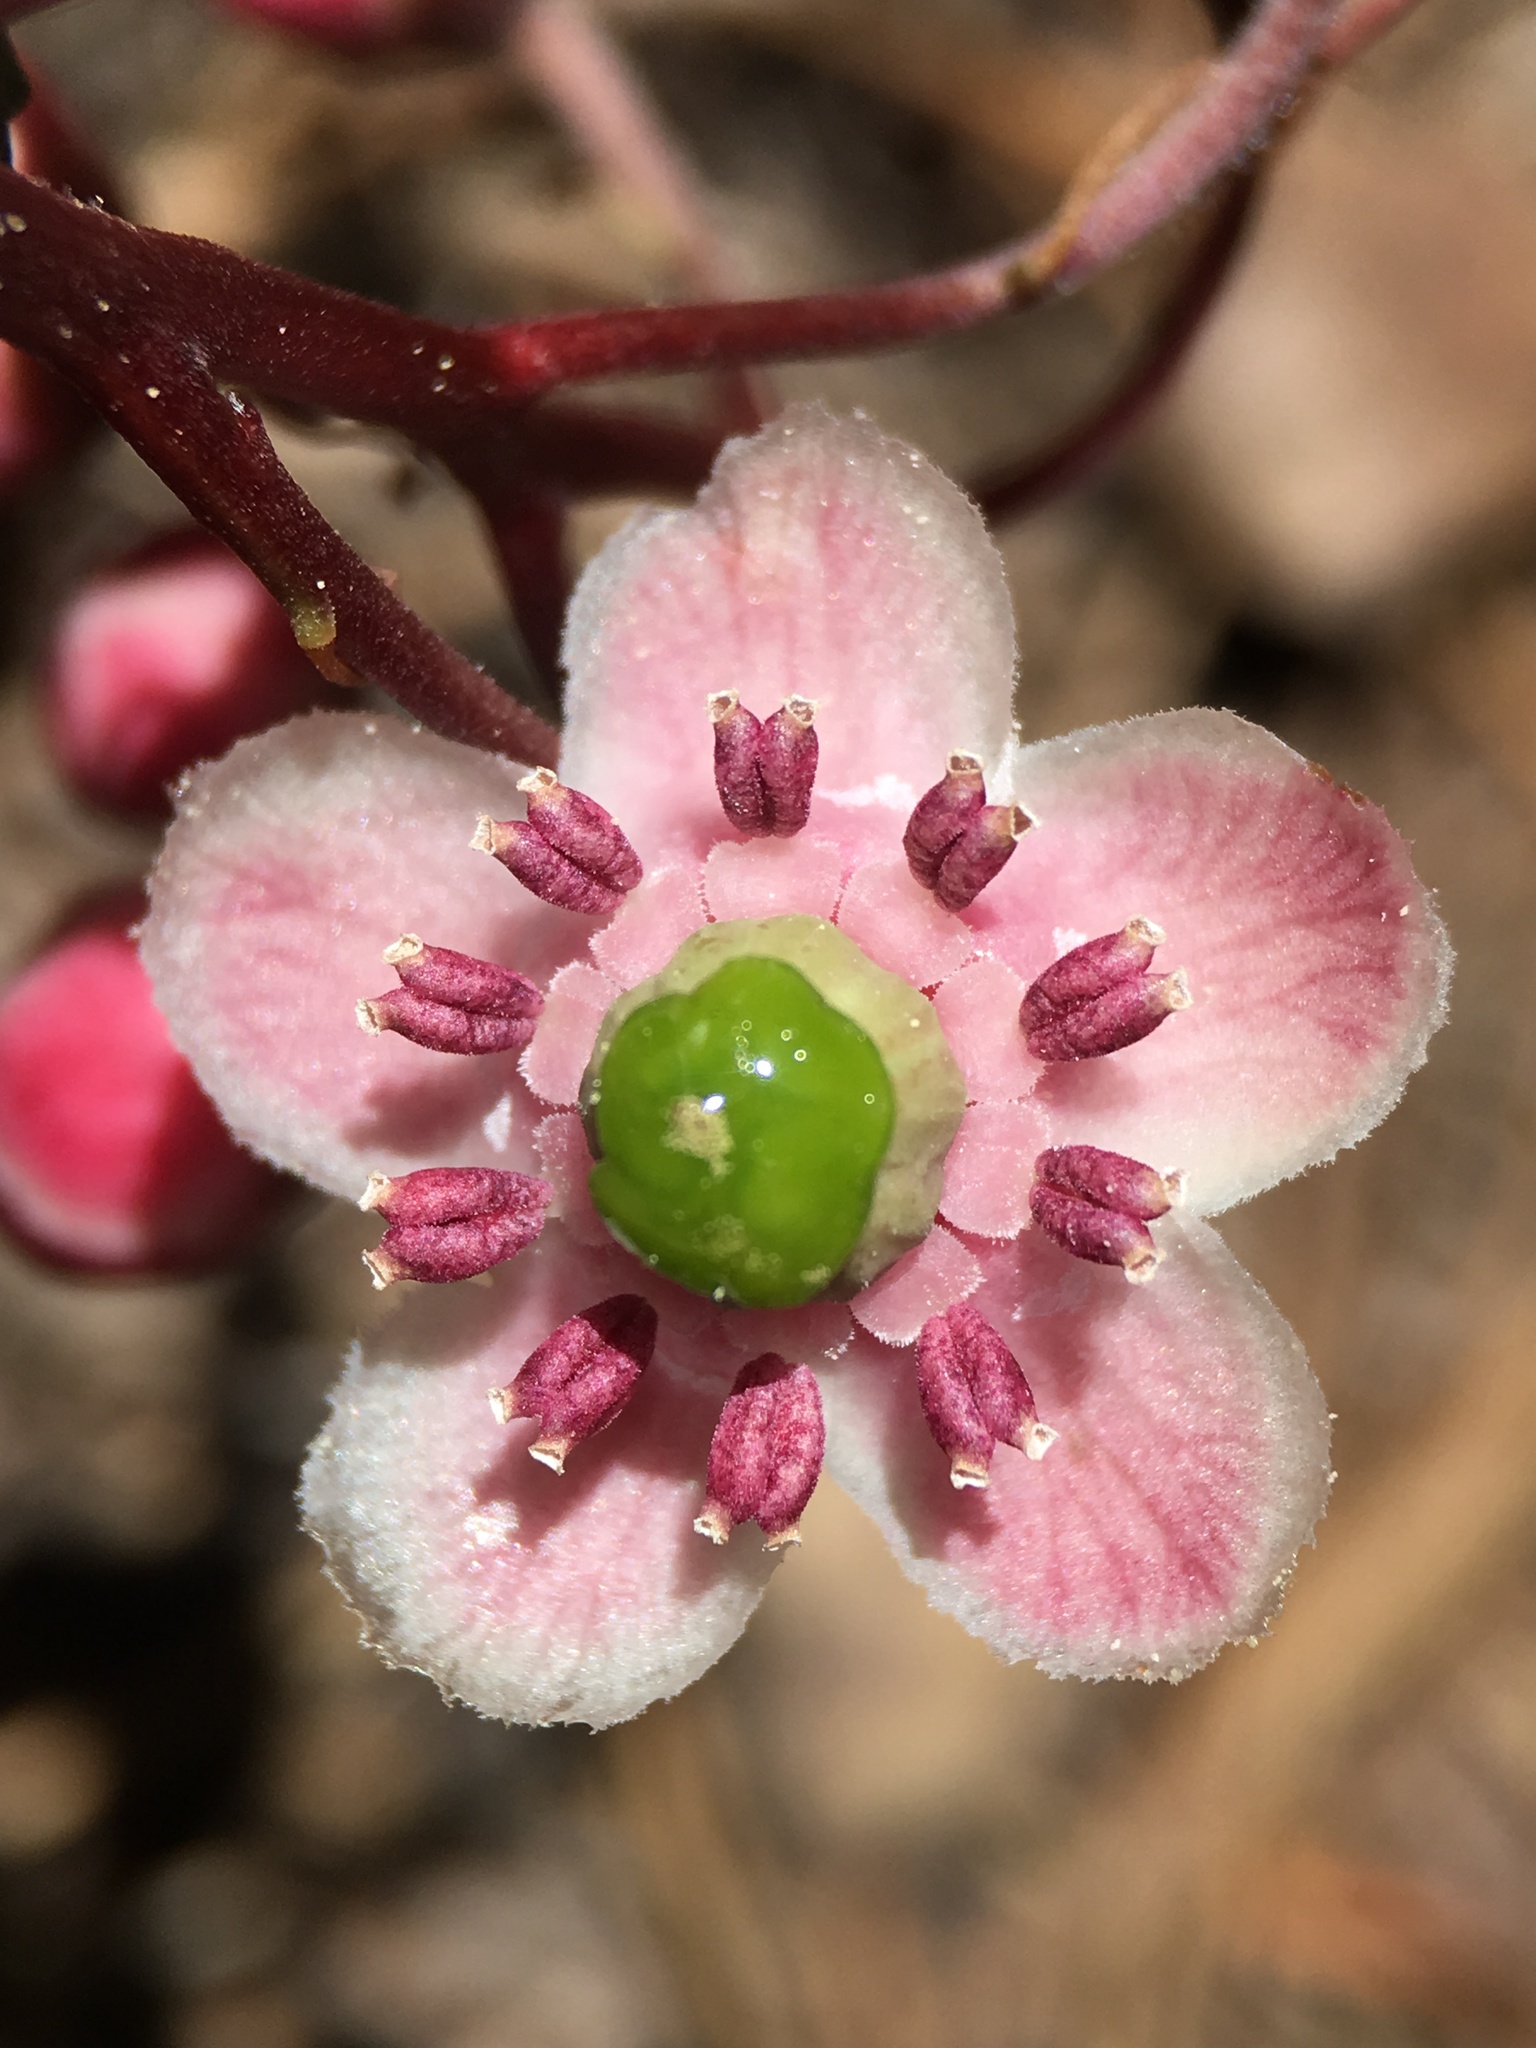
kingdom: Plantae
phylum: Tracheophyta
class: Magnoliopsida
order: Ericales
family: Ericaceae
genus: Chimaphila
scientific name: Chimaphila umbellata
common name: Pipsissewa
